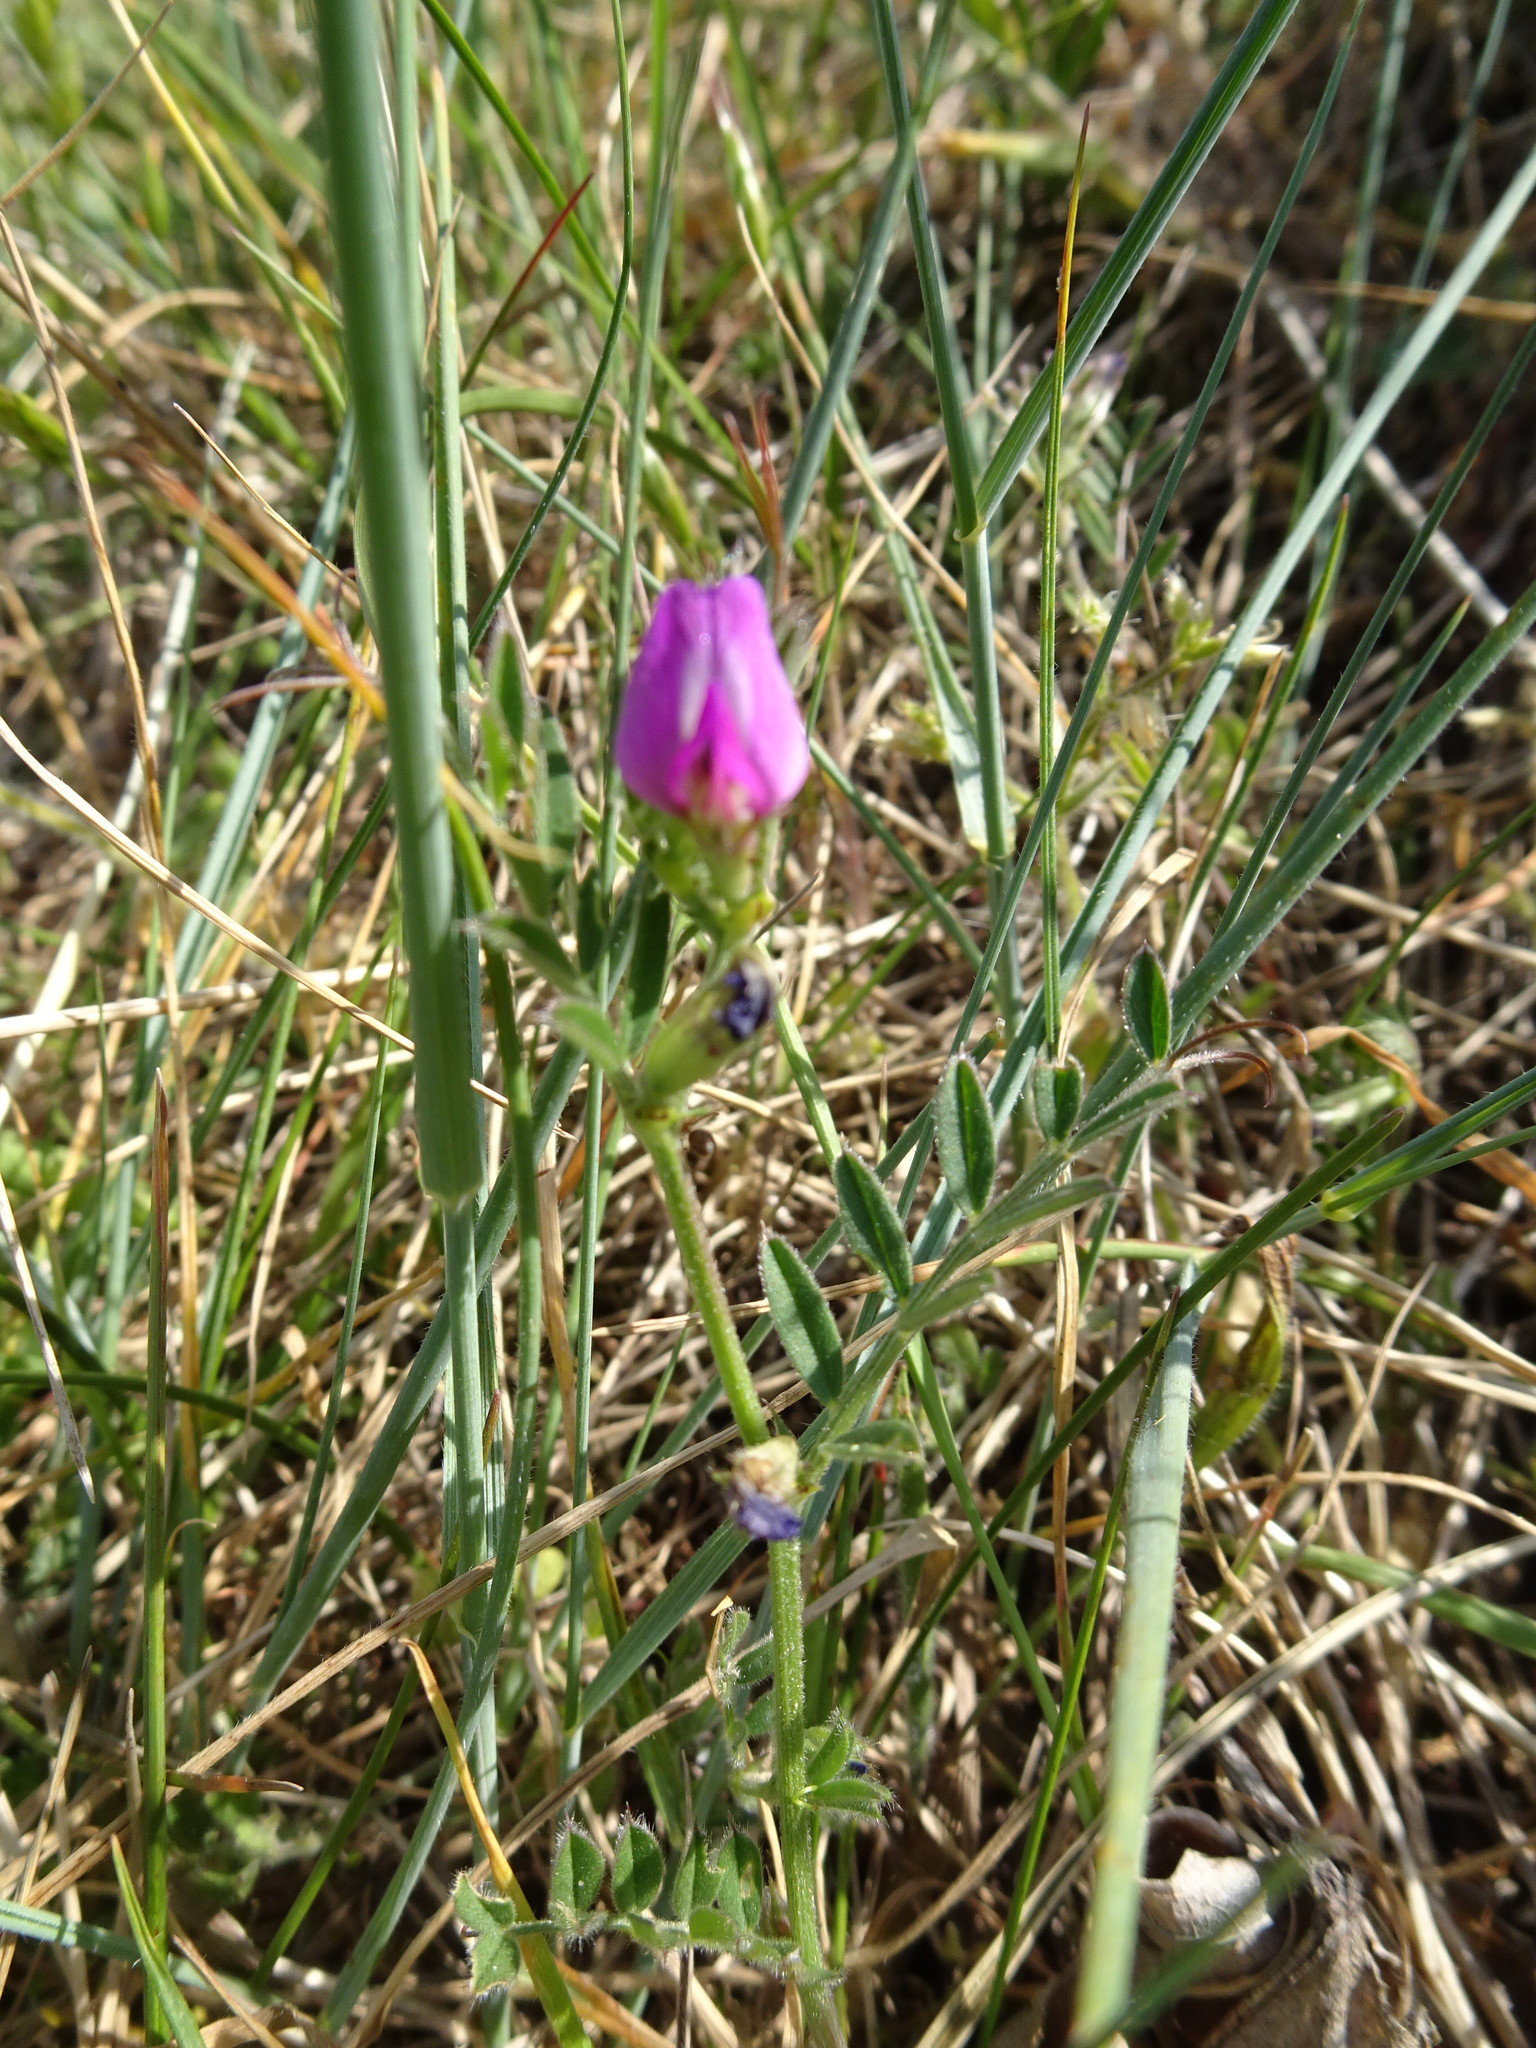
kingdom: Plantae
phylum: Tracheophyta
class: Magnoliopsida
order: Fabales
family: Fabaceae
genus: Vicia
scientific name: Vicia sativa
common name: Garden vetch
